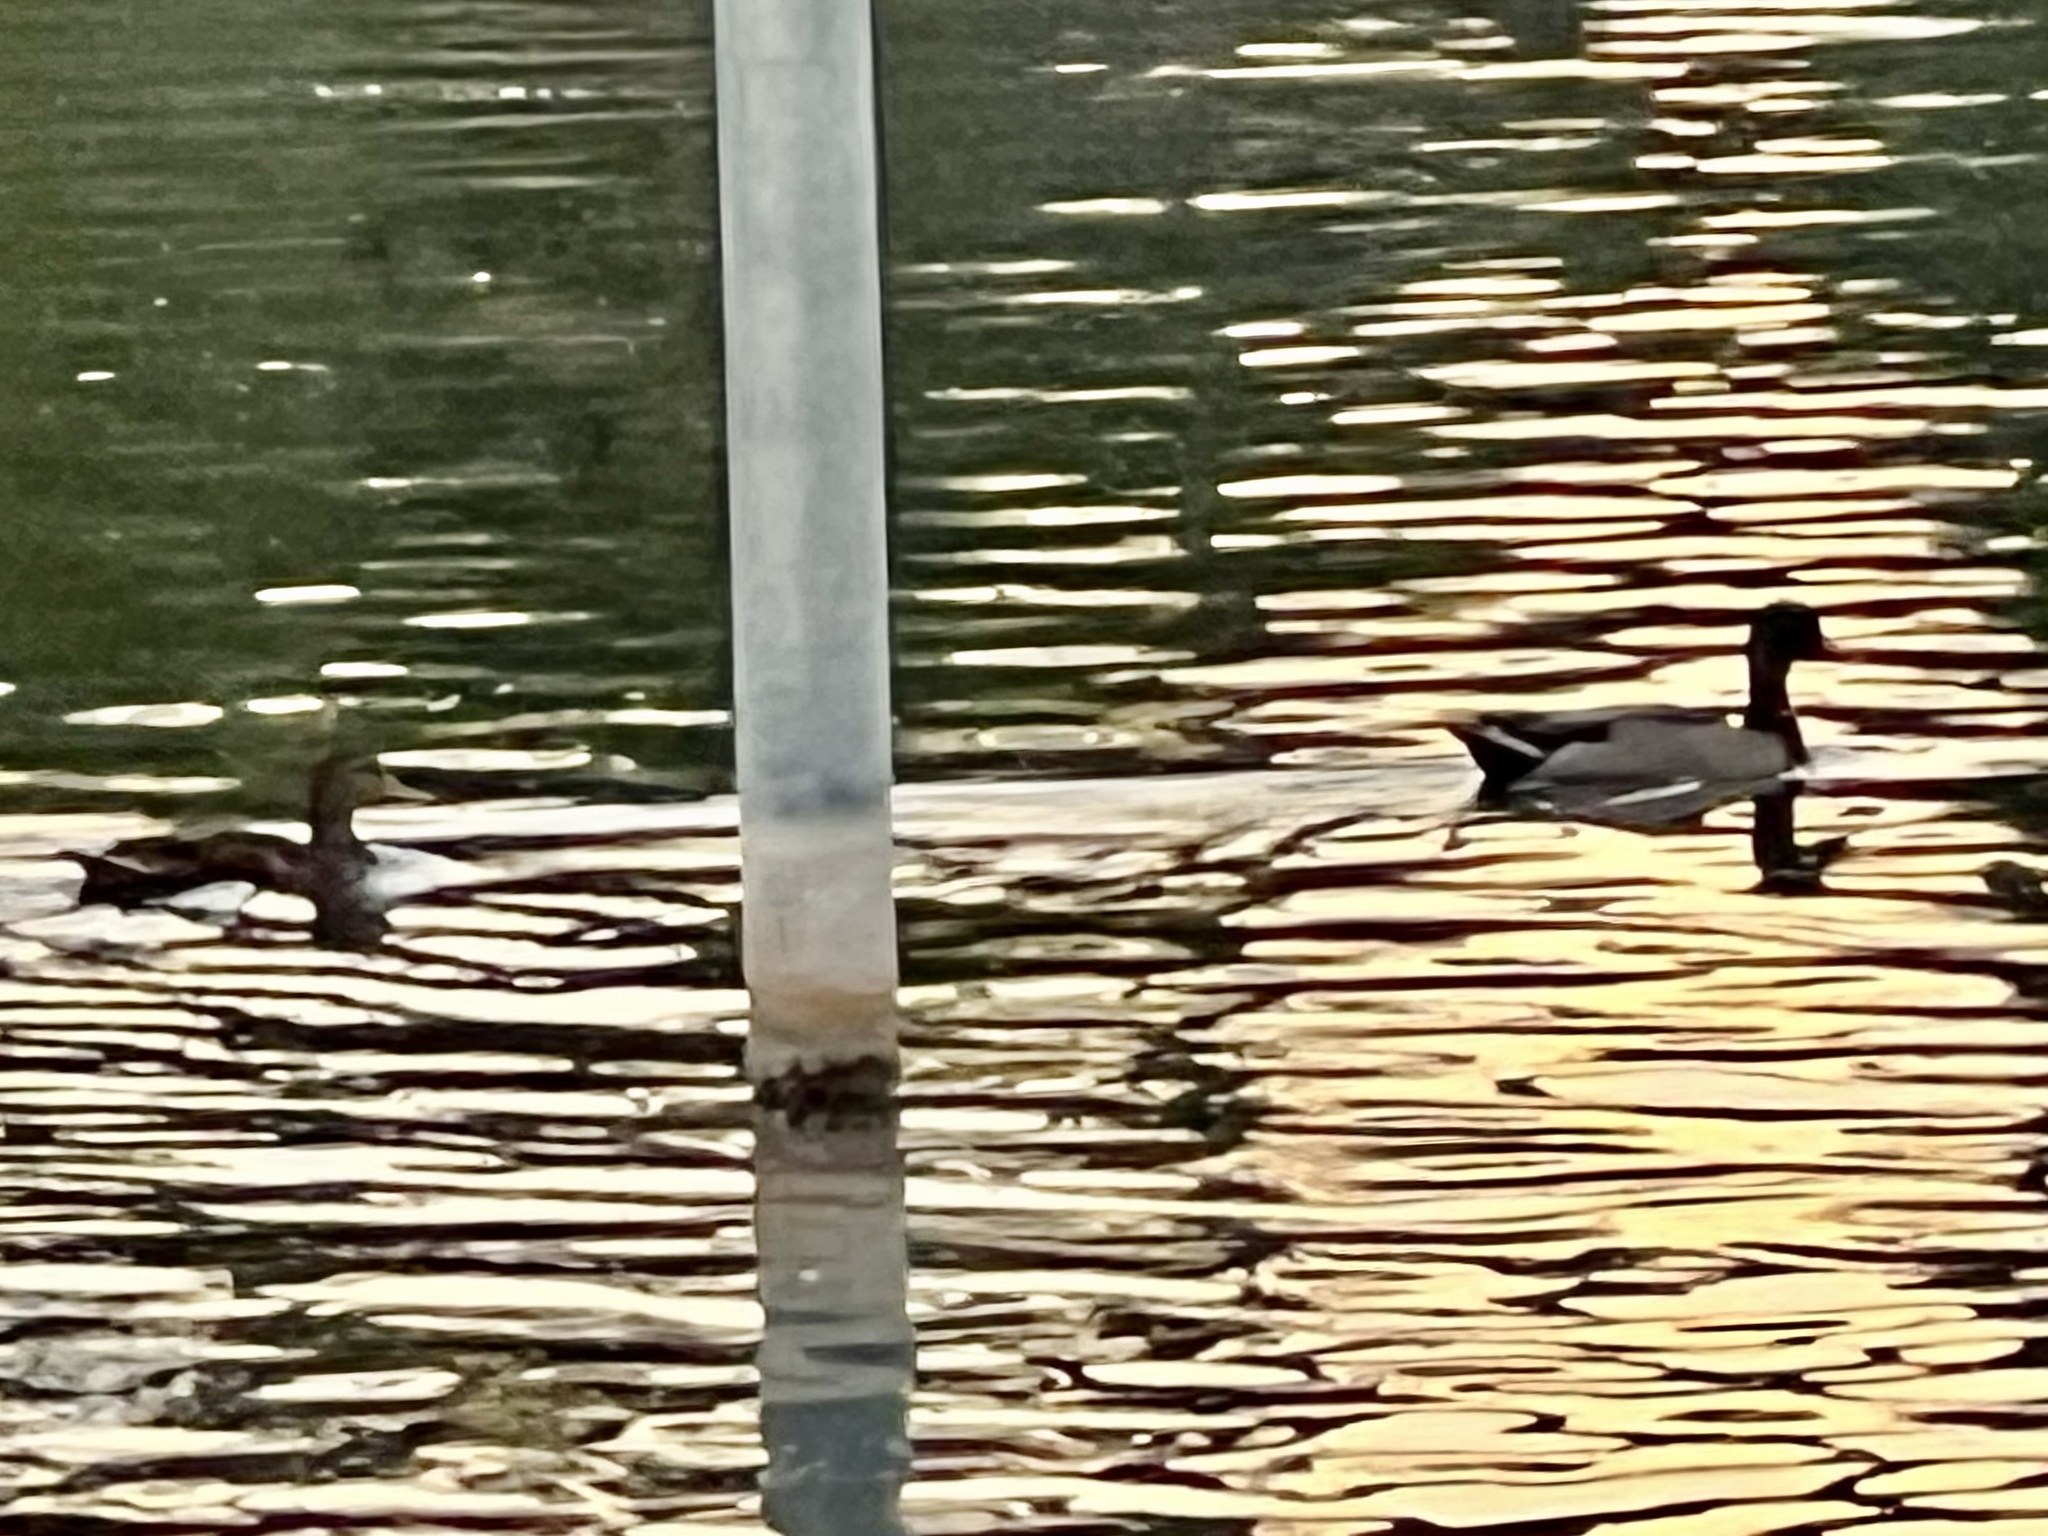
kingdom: Animalia
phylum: Chordata
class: Aves
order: Anseriformes
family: Anatidae
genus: Anas
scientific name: Anas platyrhynchos
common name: Mallard
